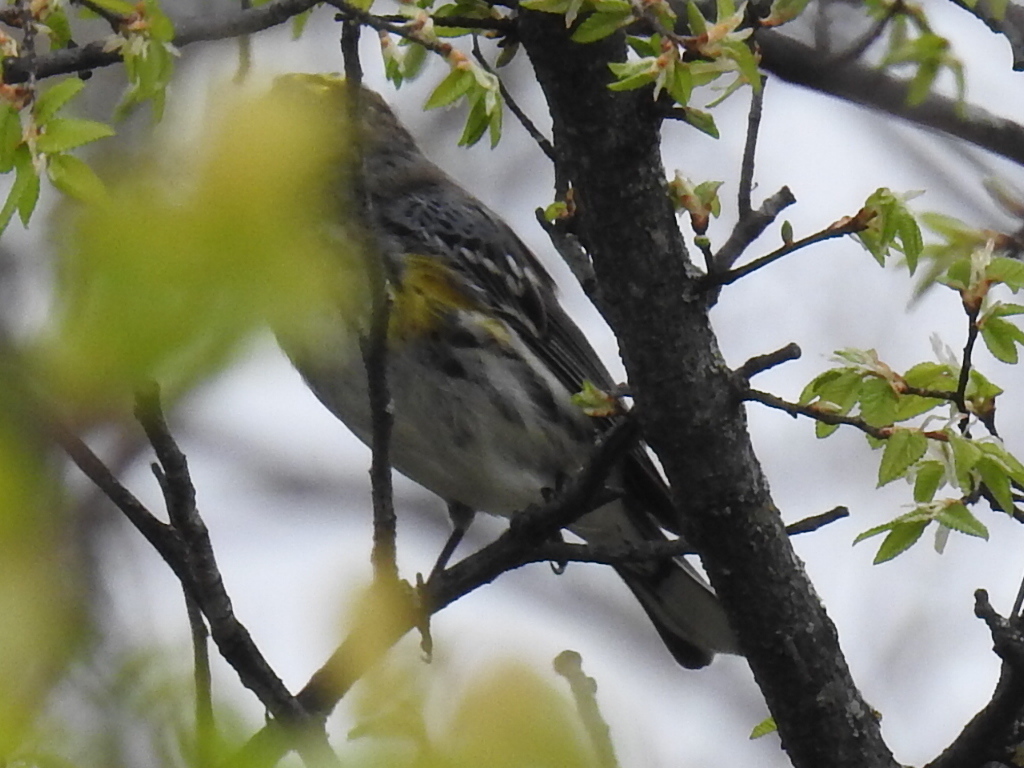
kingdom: Animalia
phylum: Chordata
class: Aves
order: Passeriformes
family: Parulidae
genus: Setophaga
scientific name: Setophaga coronata
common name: Myrtle warbler
